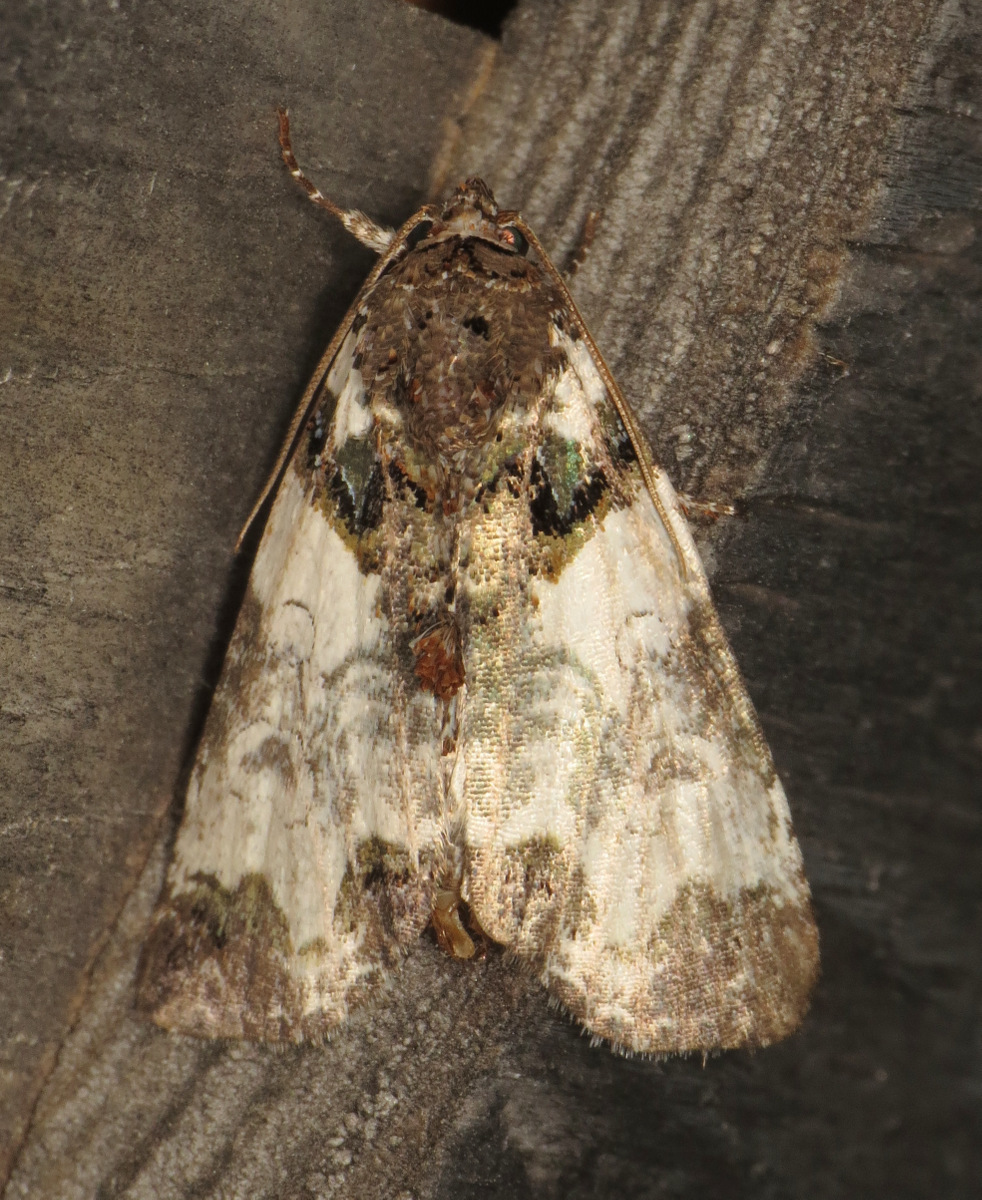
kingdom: Animalia
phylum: Arthropoda
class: Insecta
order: Lepidoptera
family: Noctuidae
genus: Cerma
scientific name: Cerma cerintha
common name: Tufted bird-dropping moth
